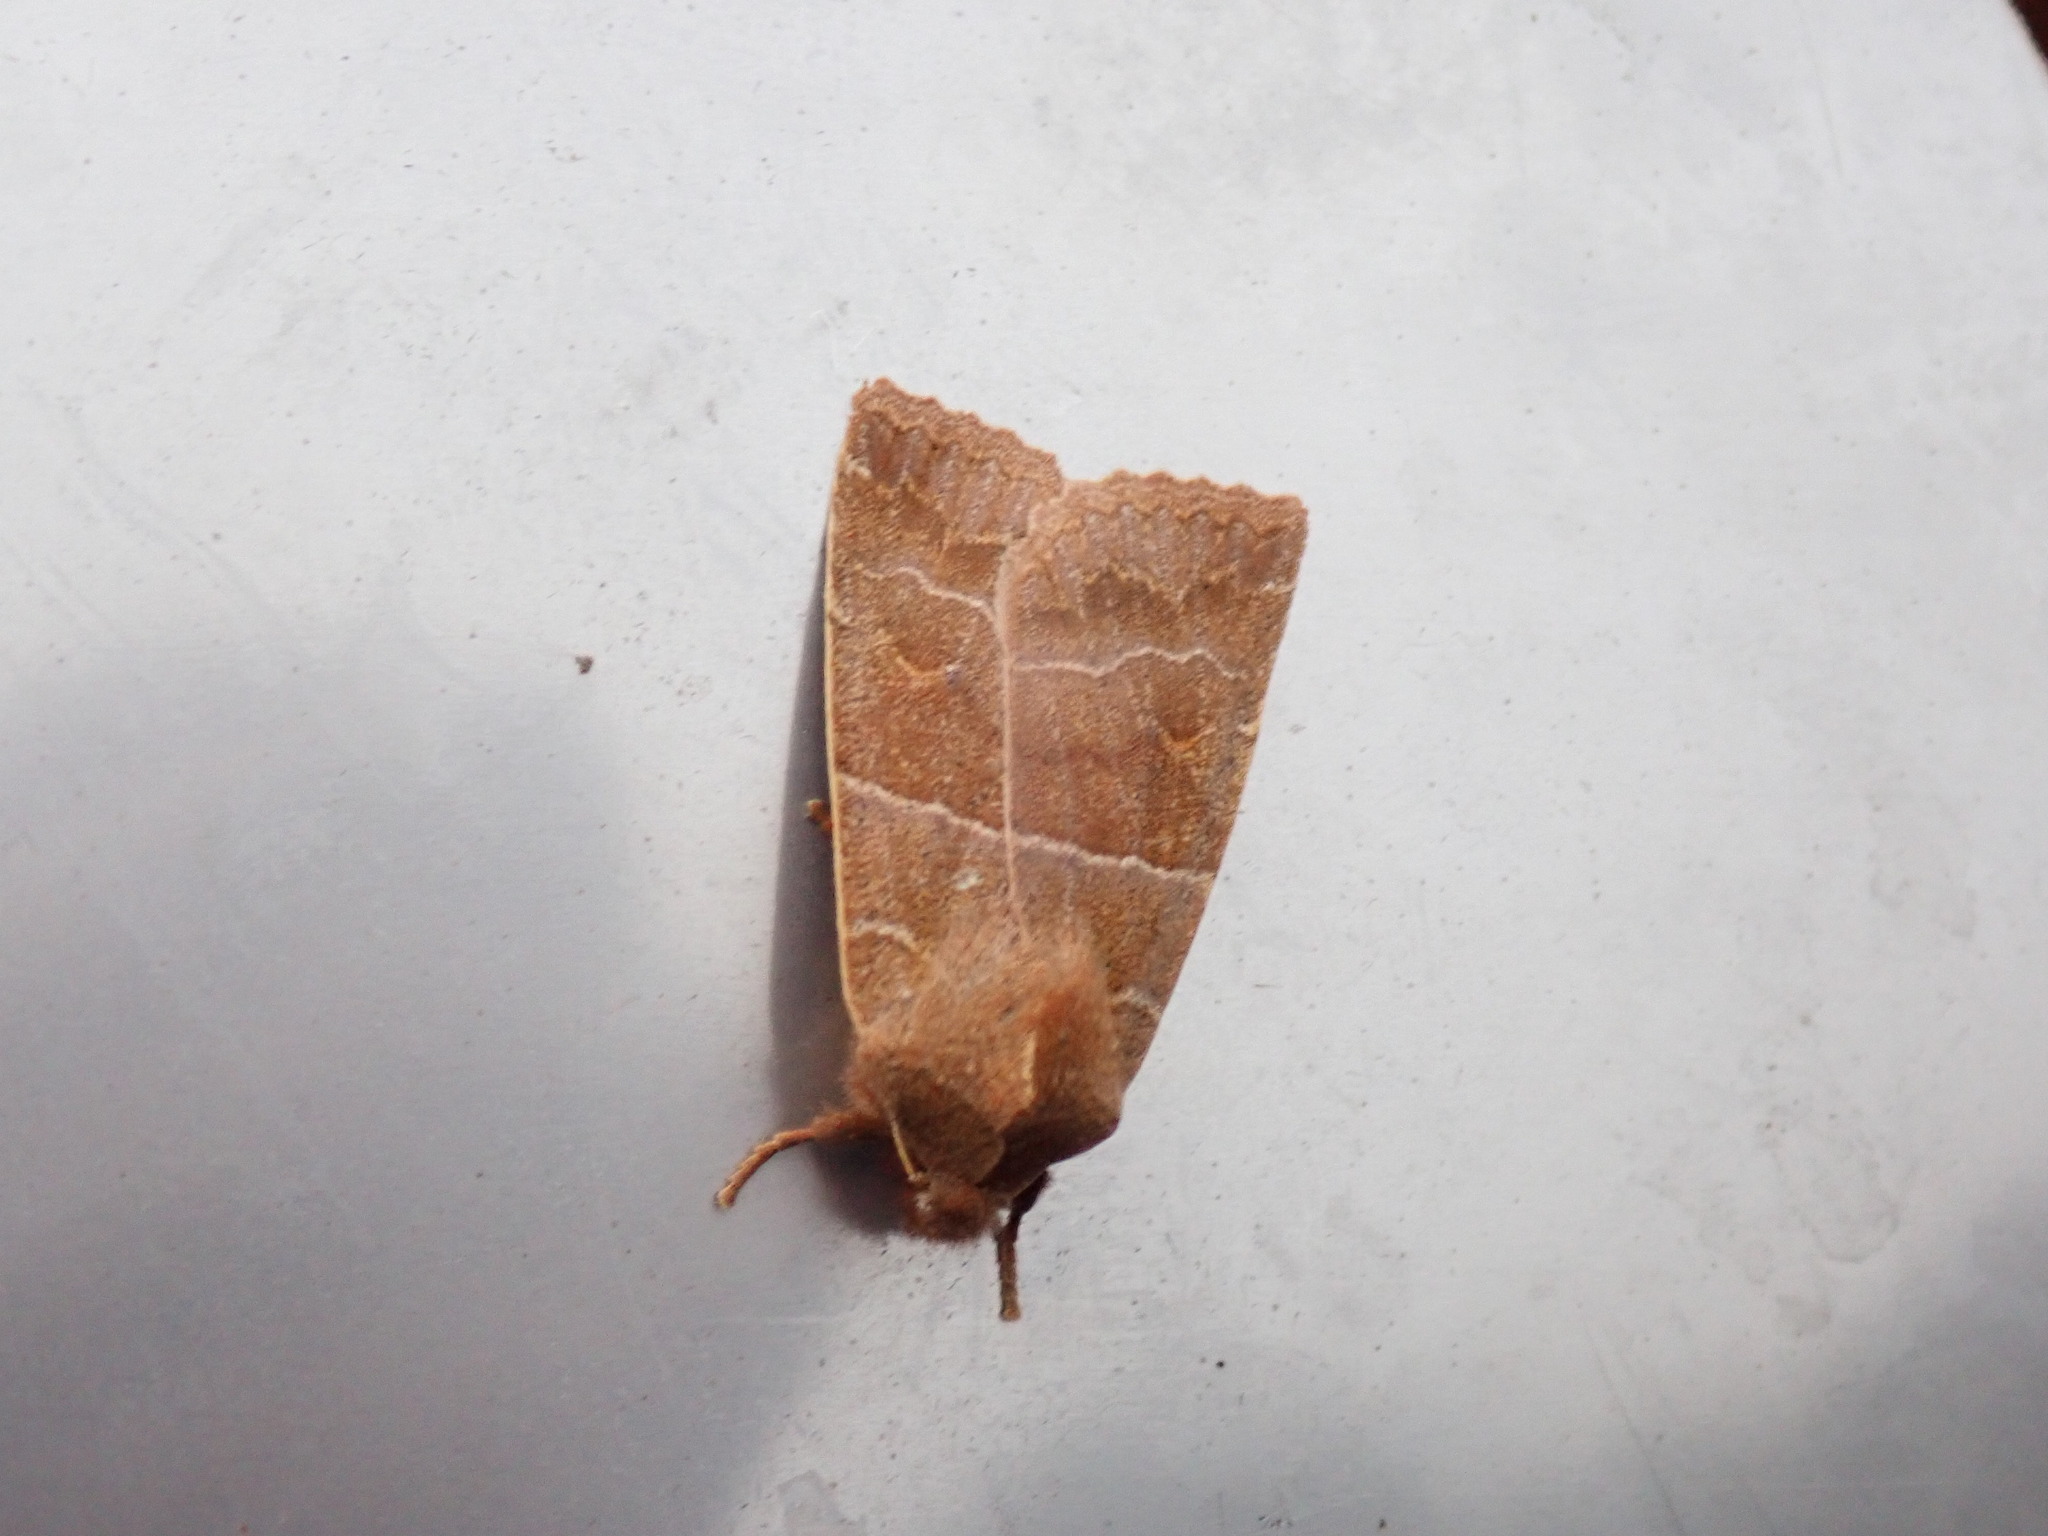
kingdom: Animalia
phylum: Arthropoda
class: Insecta
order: Lepidoptera
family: Noctuidae
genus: Eupsilia
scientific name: Eupsilia morrisoni
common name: Morrison's sallow
